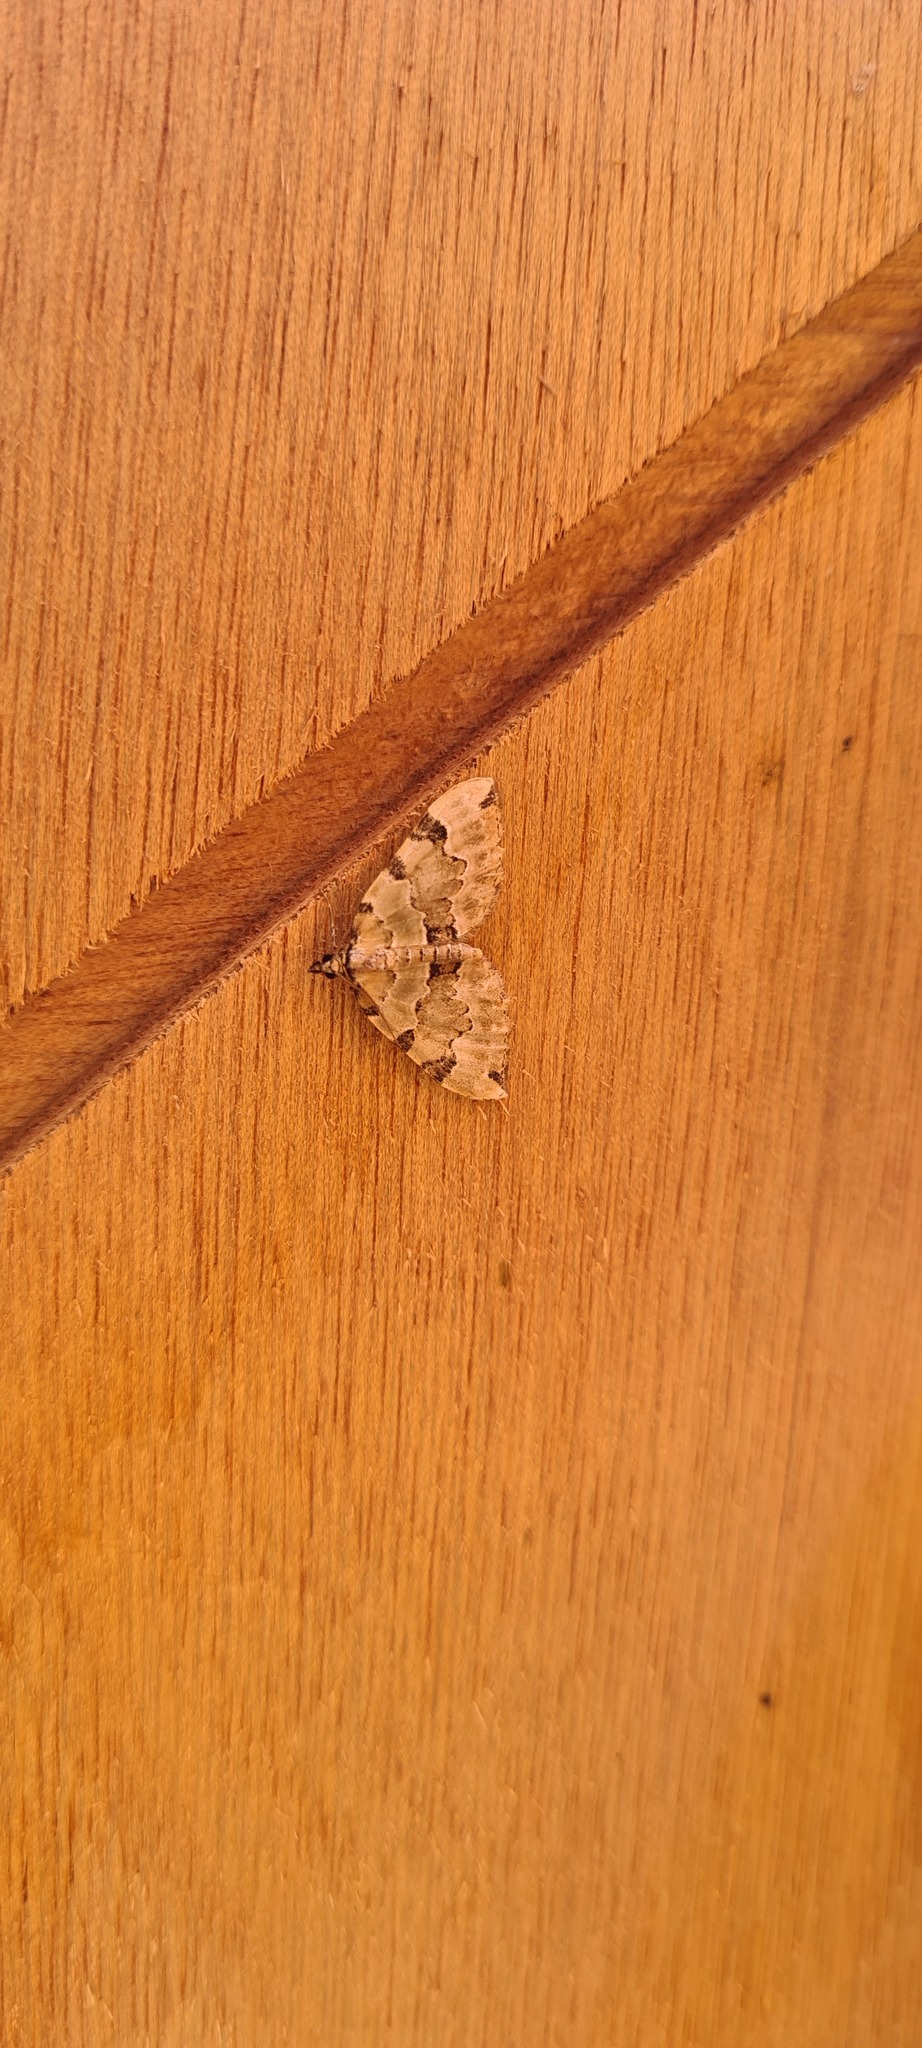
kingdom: Animalia
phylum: Arthropoda
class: Insecta
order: Lepidoptera
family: Geometridae
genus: Colostygia
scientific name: Colostygia pectinataria
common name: Green carpet
